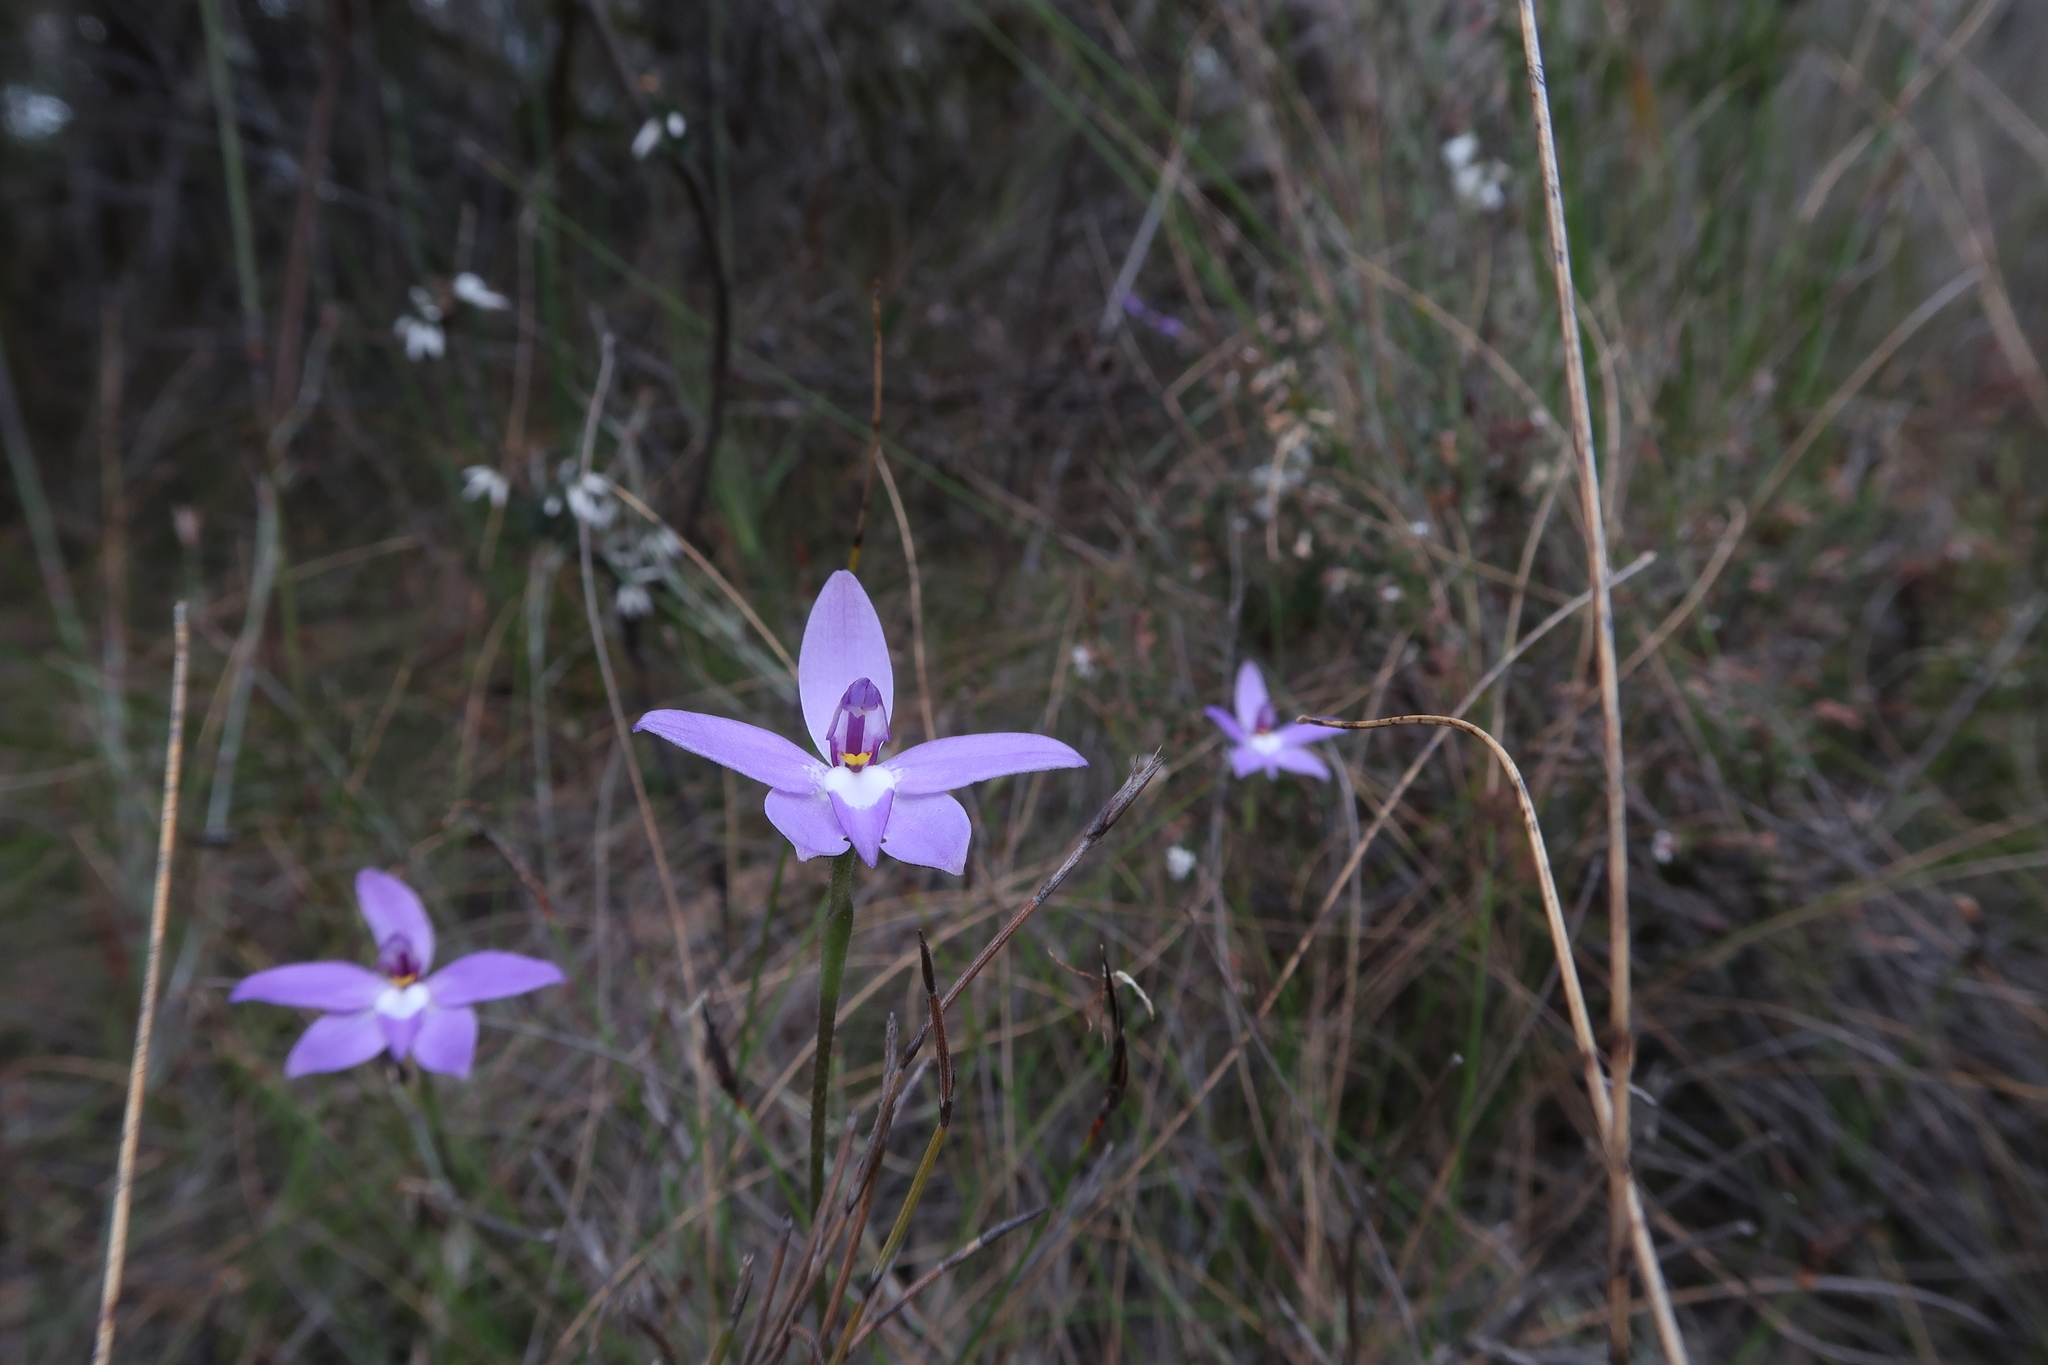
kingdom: Plantae
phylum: Tracheophyta
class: Liliopsida
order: Asparagales
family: Orchidaceae
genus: Caladenia
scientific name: Caladenia major
